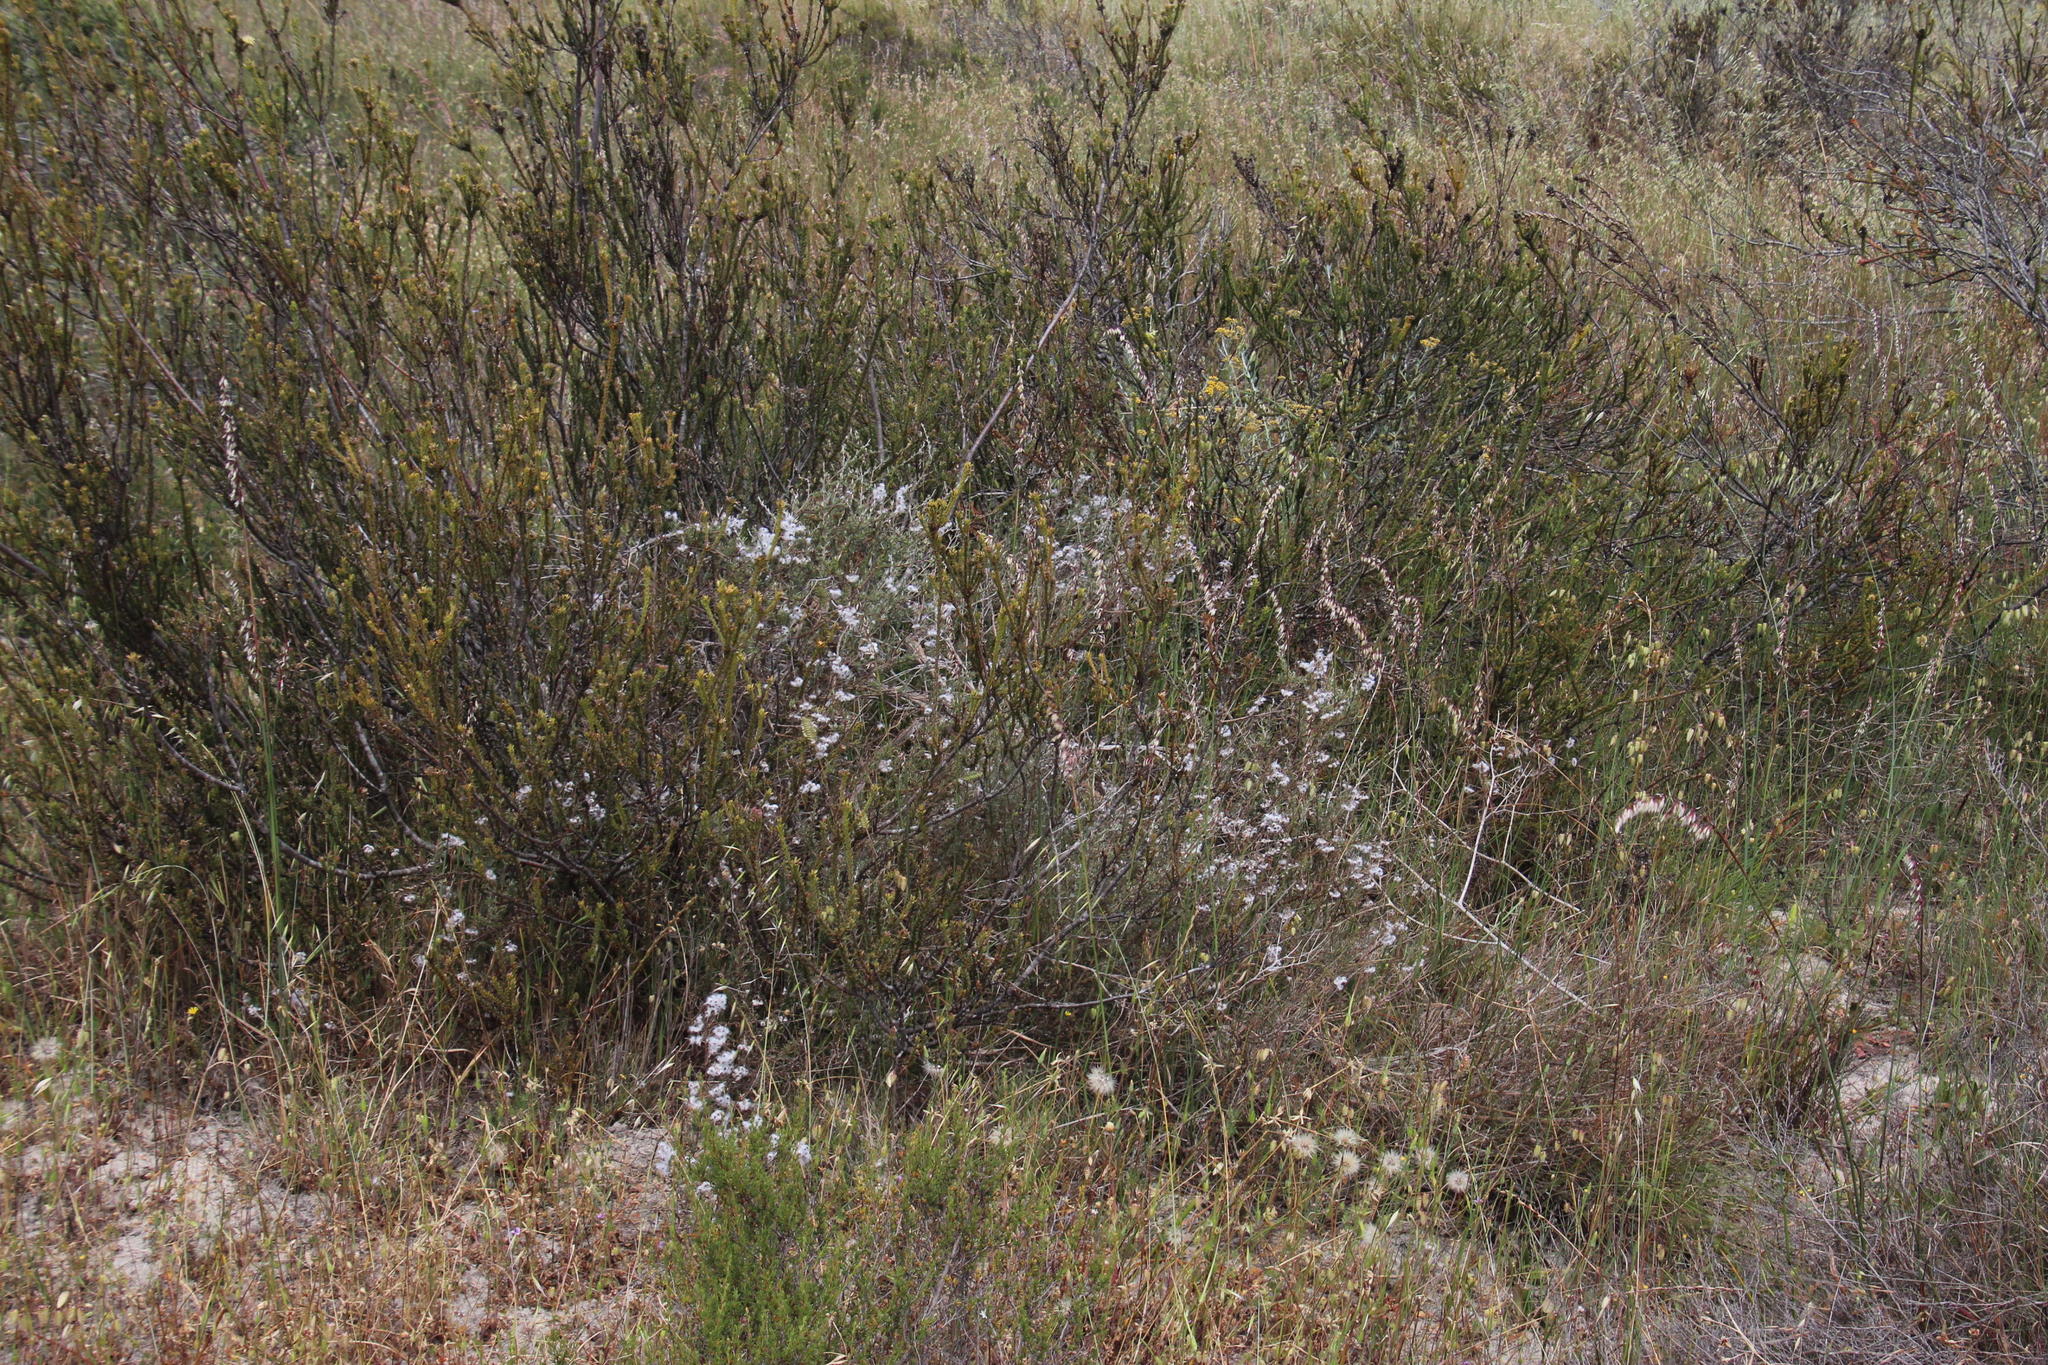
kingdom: Plantae
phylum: Tracheophyta
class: Magnoliopsida
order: Asterales
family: Asteraceae
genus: Eriocephalus
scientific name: Eriocephalus africanus
